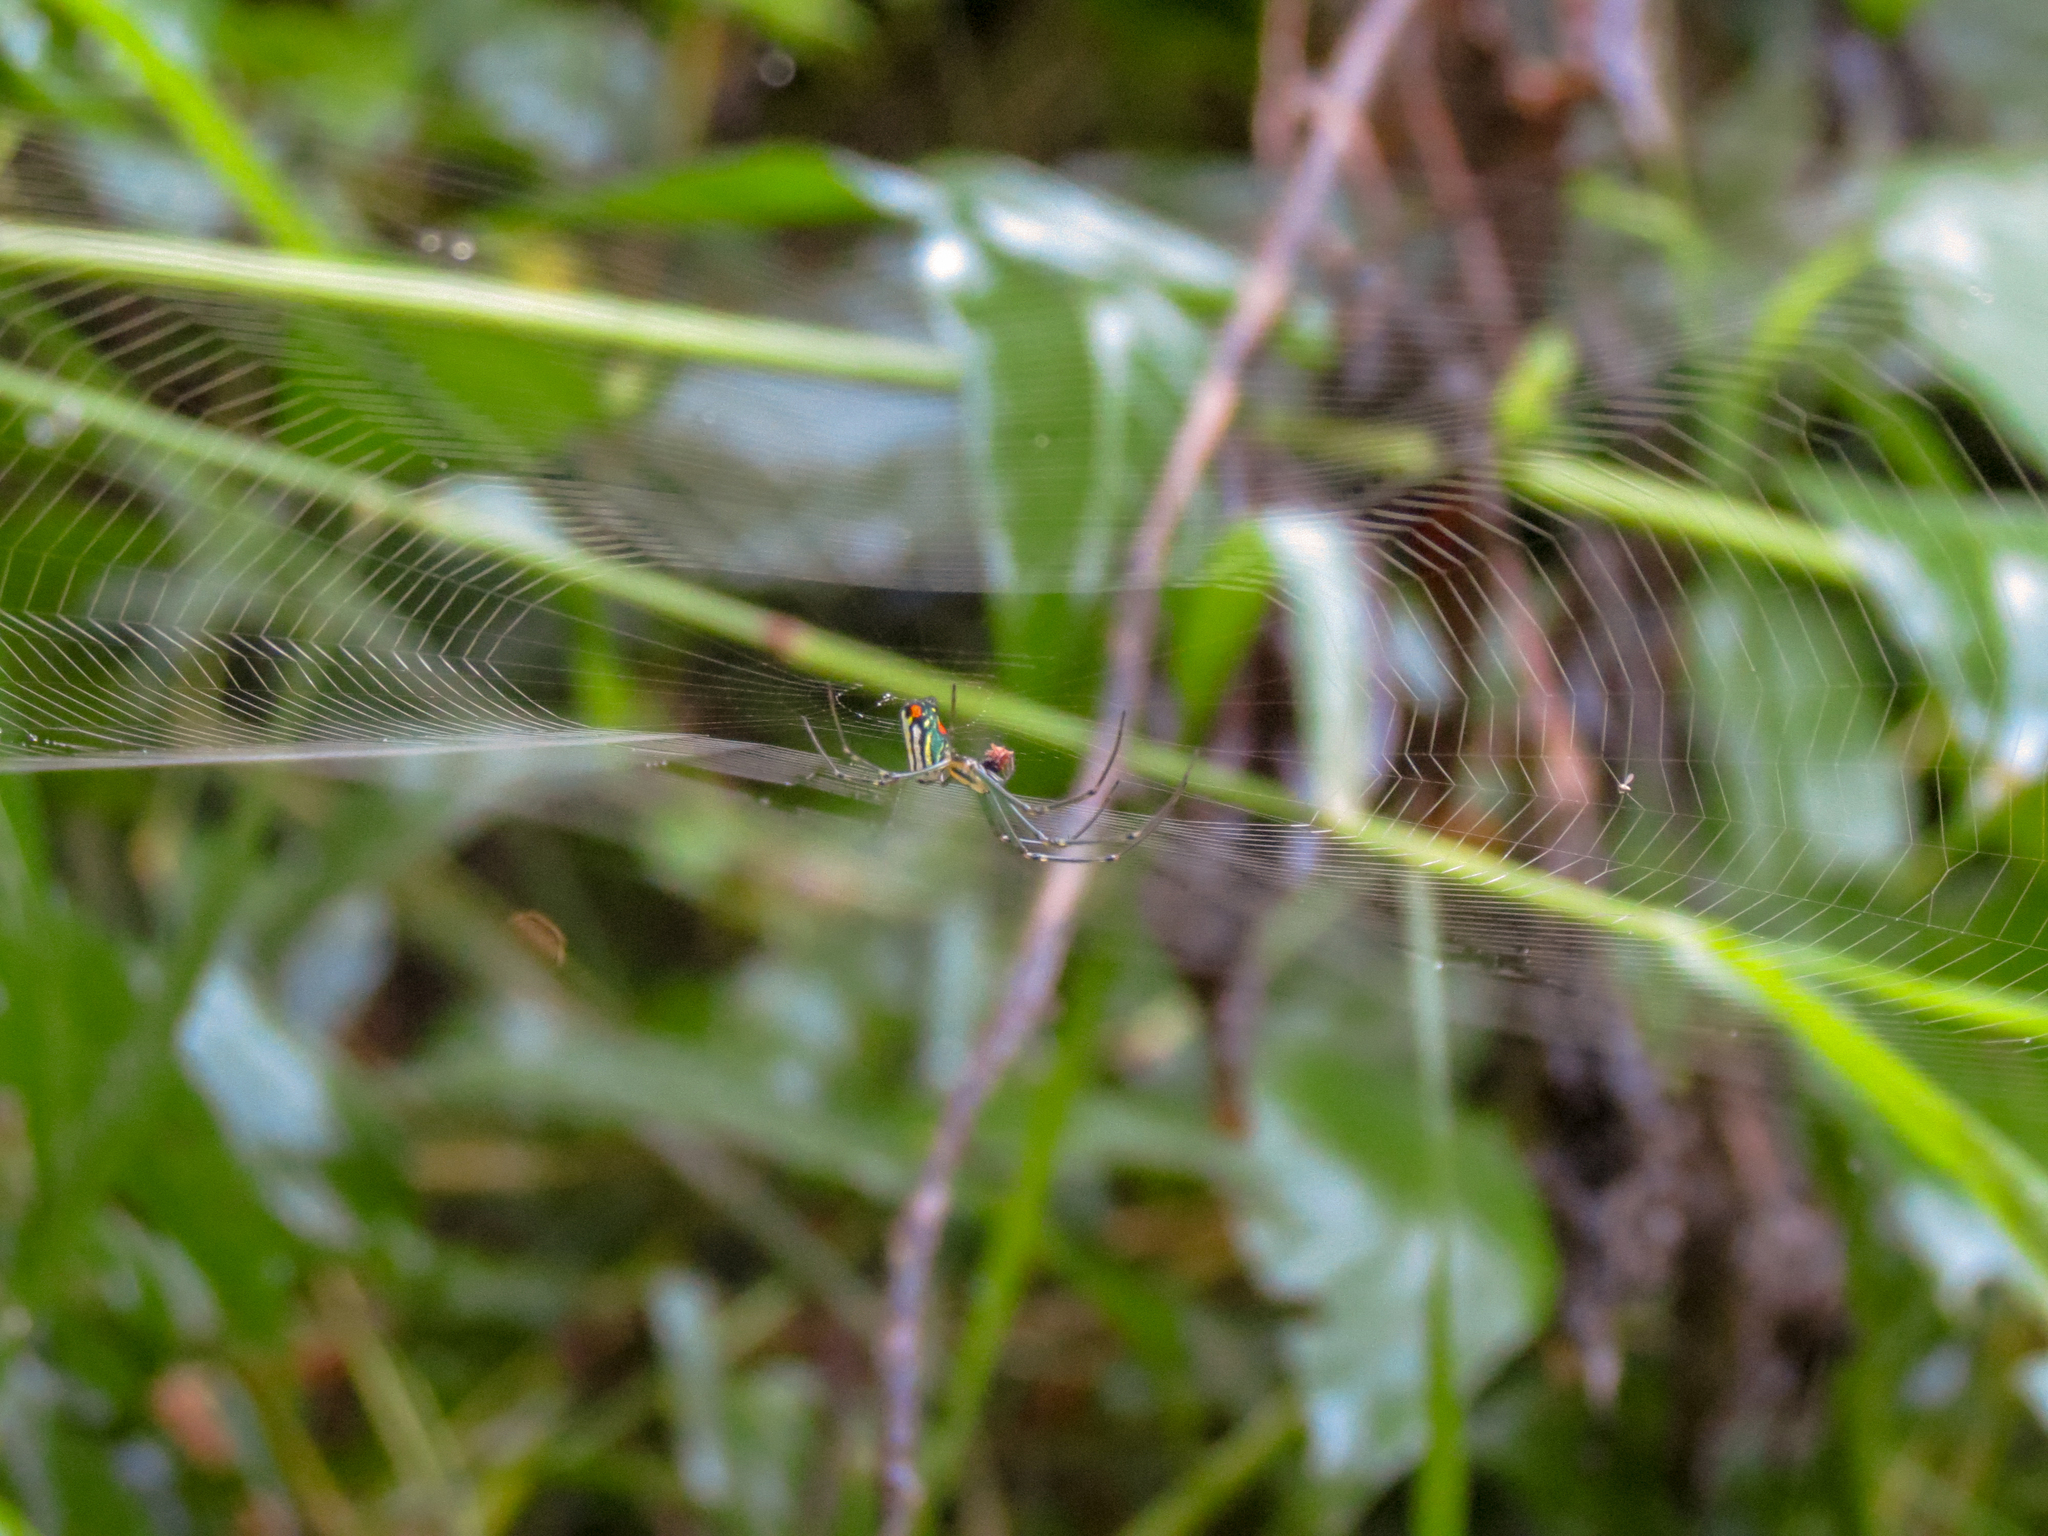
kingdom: Animalia
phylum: Arthropoda
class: Arachnida
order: Araneae
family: Tetragnathidae
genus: Leucauge
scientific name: Leucauge argyrobapta
